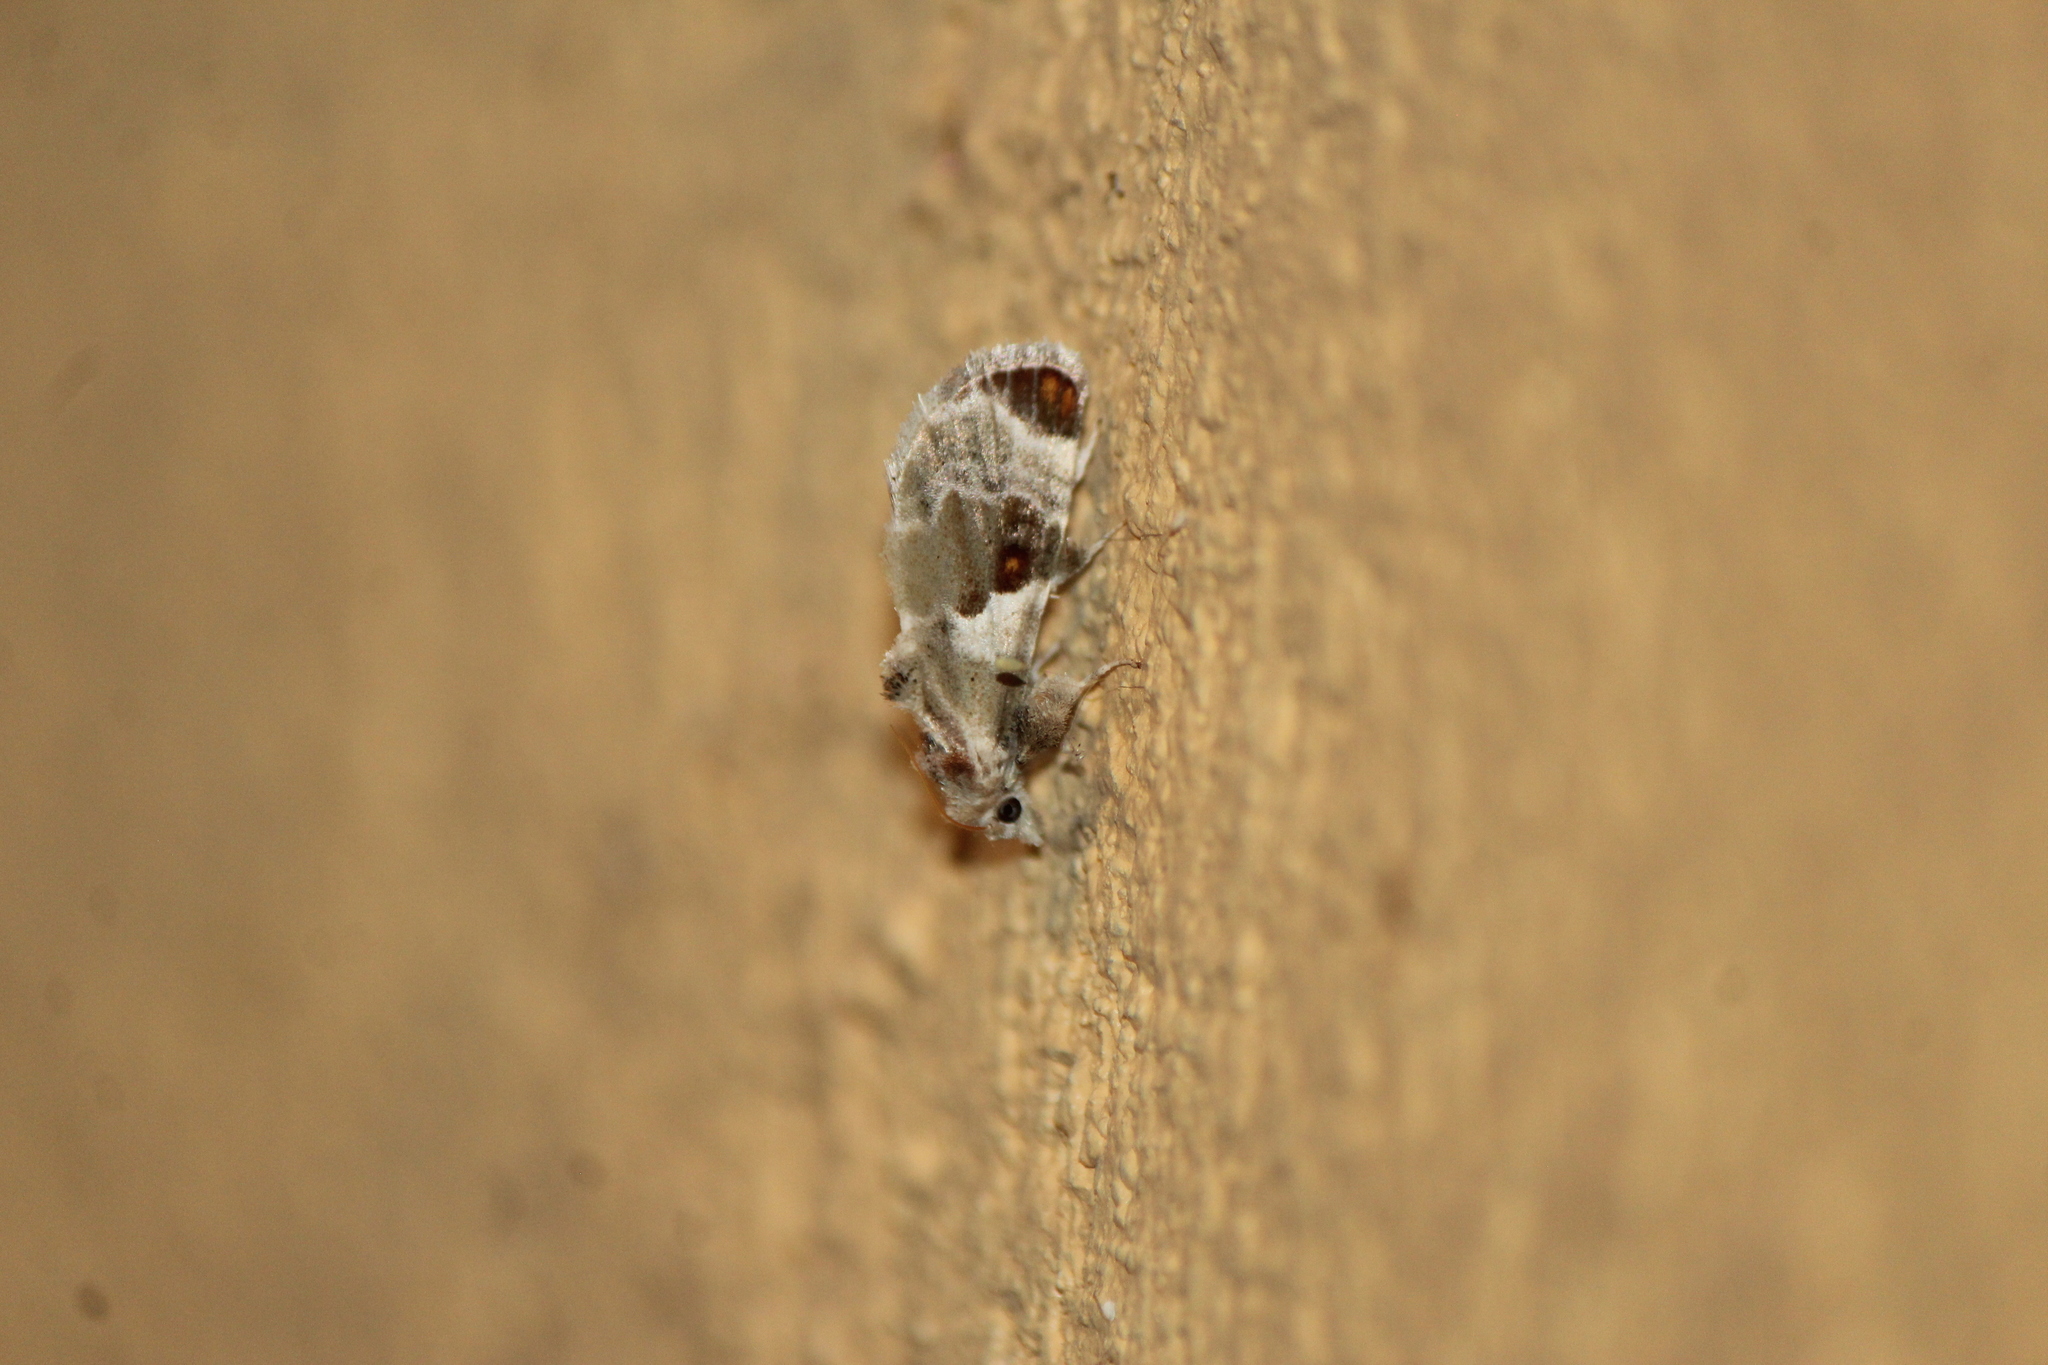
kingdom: Animalia
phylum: Arthropoda
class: Insecta
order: Lepidoptera
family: Pyralidae
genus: Cromarcha
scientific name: Cromarcha
